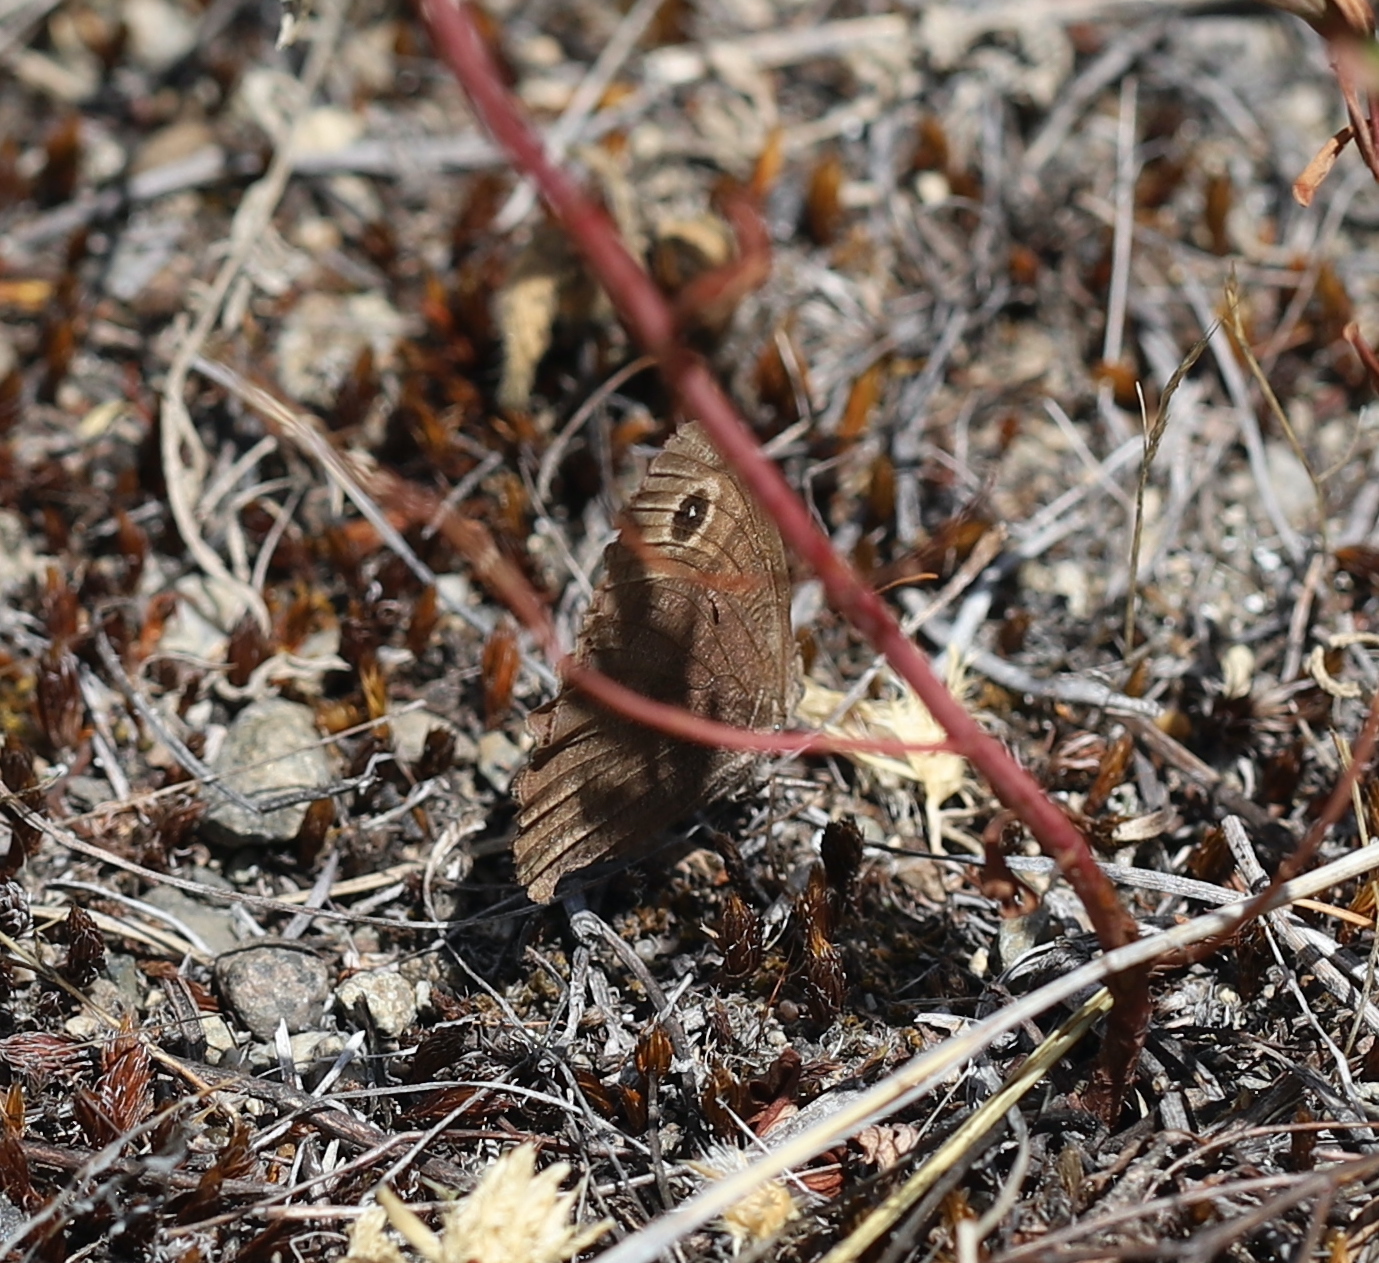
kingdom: Animalia
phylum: Arthropoda
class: Insecta
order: Lepidoptera
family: Nymphalidae
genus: Cercyonis
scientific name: Cercyonis pegala
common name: Common wood-nymph
